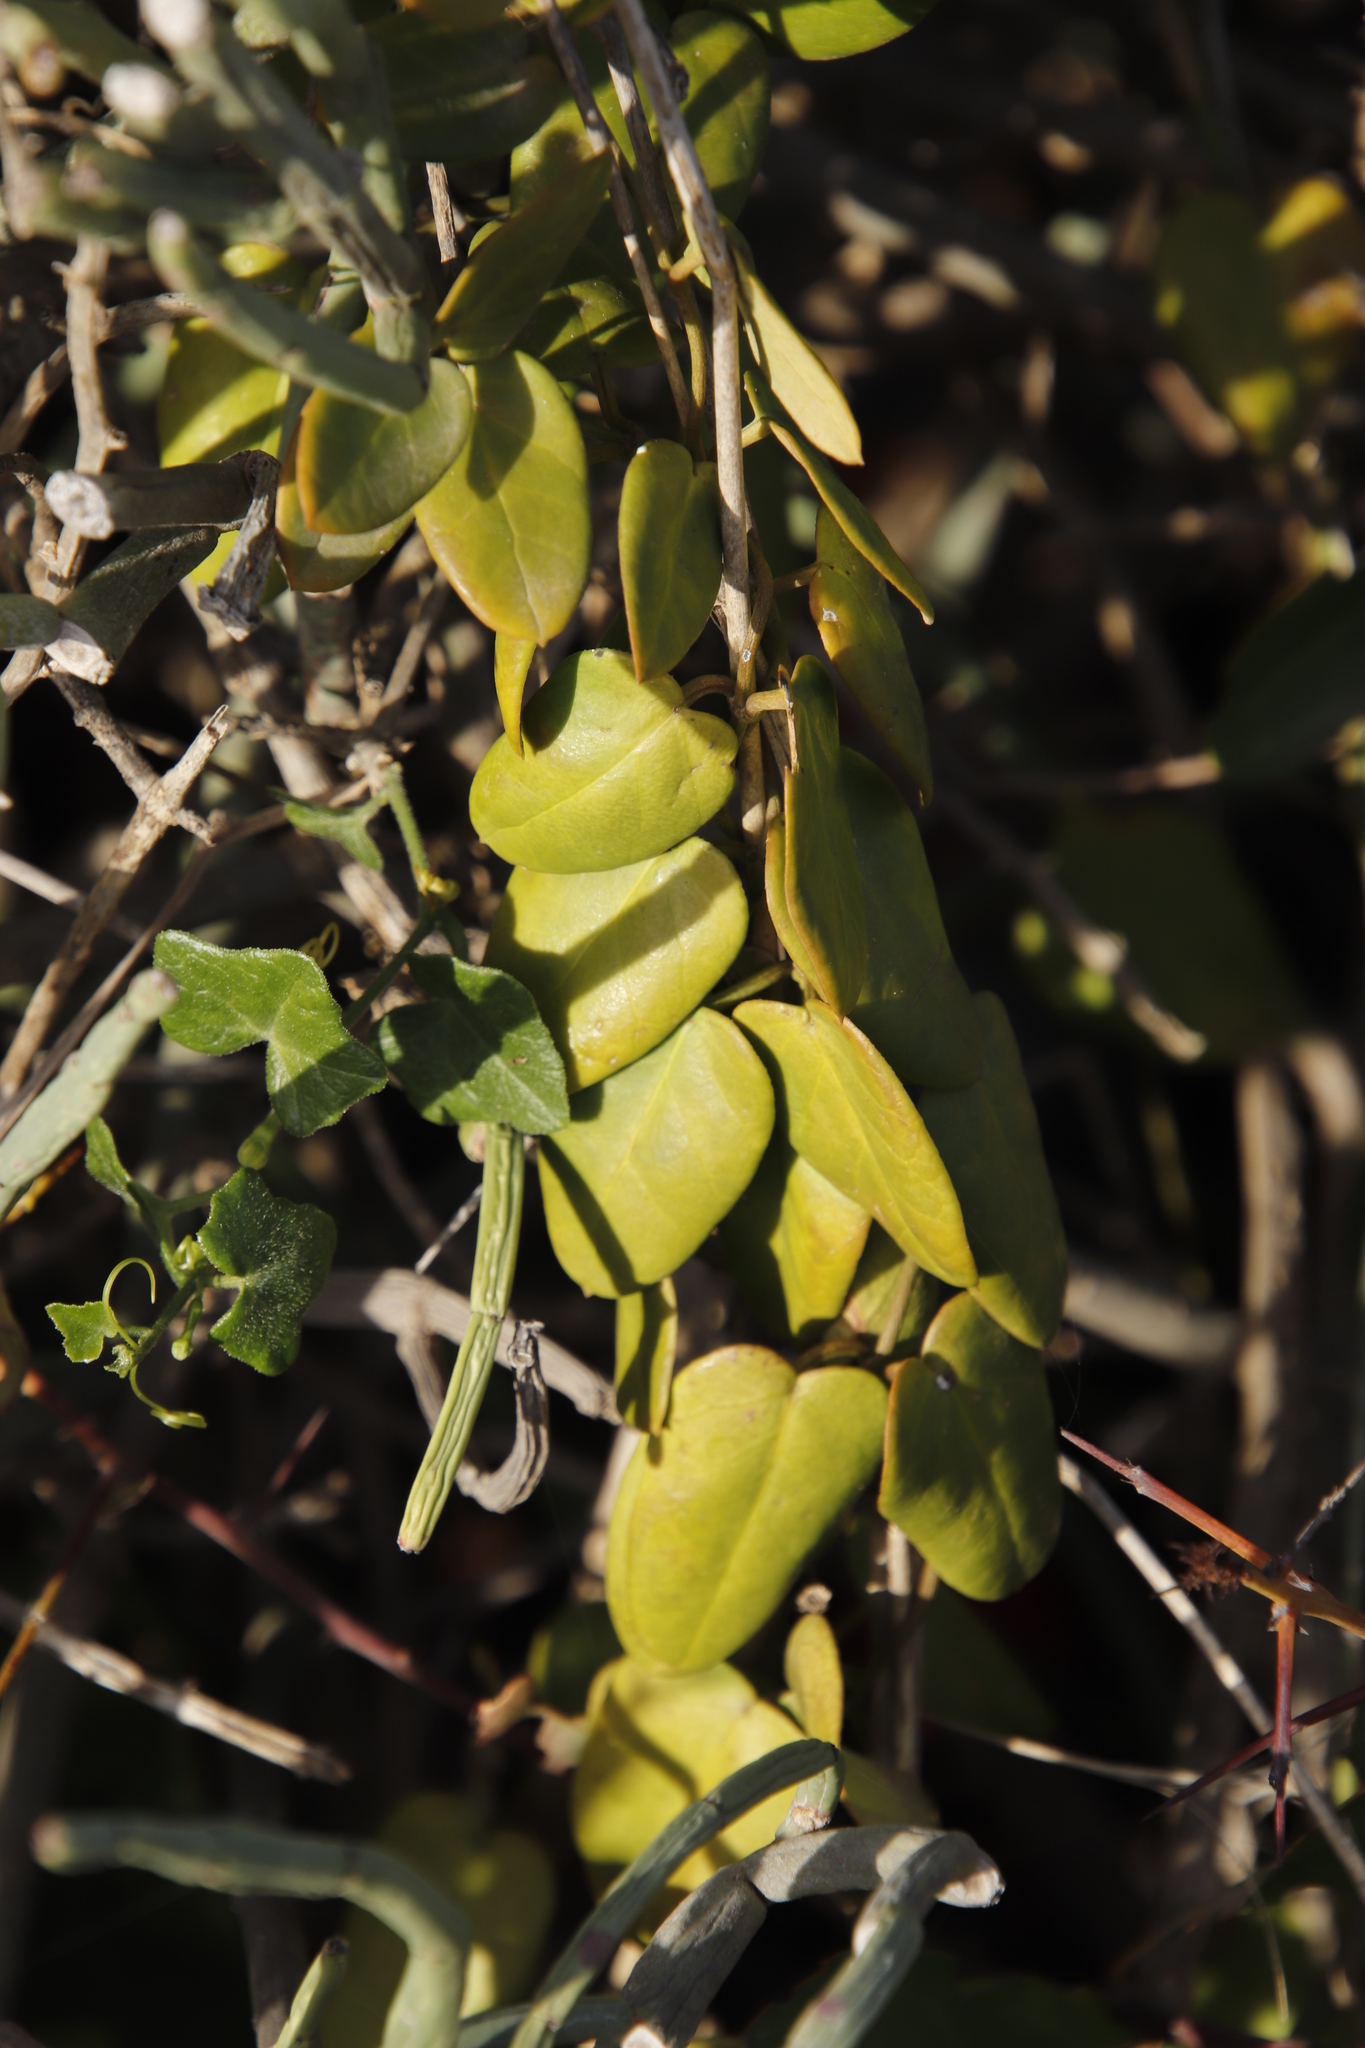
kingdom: Plantae
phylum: Tracheophyta
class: Magnoliopsida
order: Gentianales
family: Apocynaceae
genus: Cynanchum
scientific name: Cynanchum africanum
